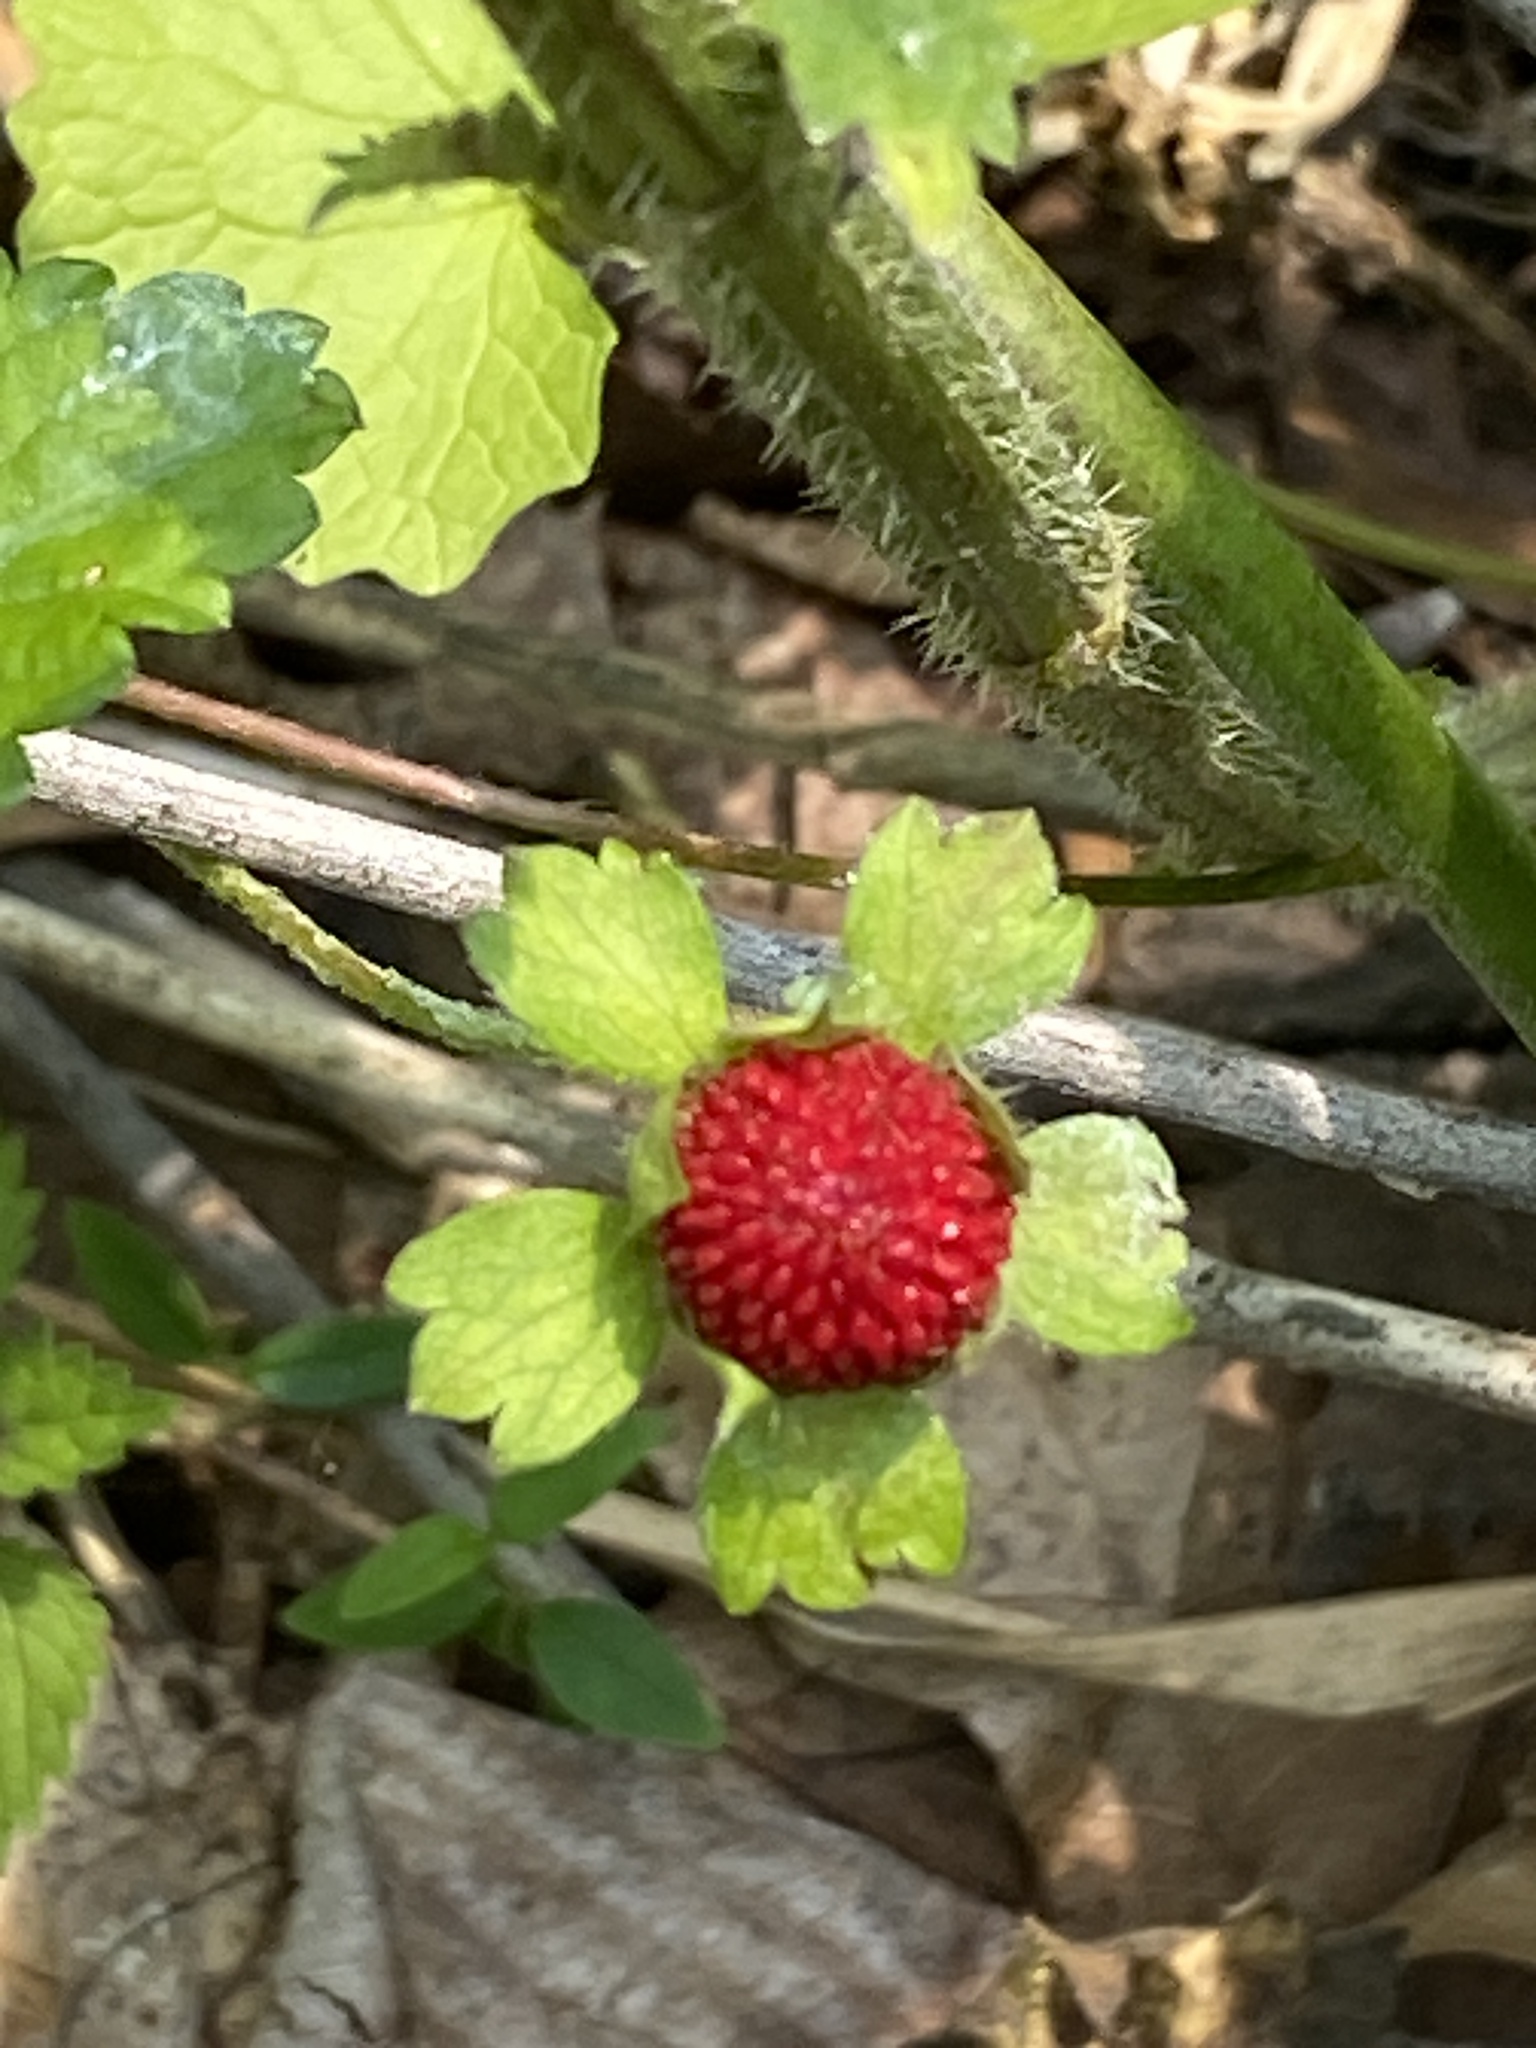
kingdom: Plantae
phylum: Tracheophyta
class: Magnoliopsida
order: Rosales
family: Rosaceae
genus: Potentilla
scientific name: Potentilla indica
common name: Yellow-flowered strawberry
